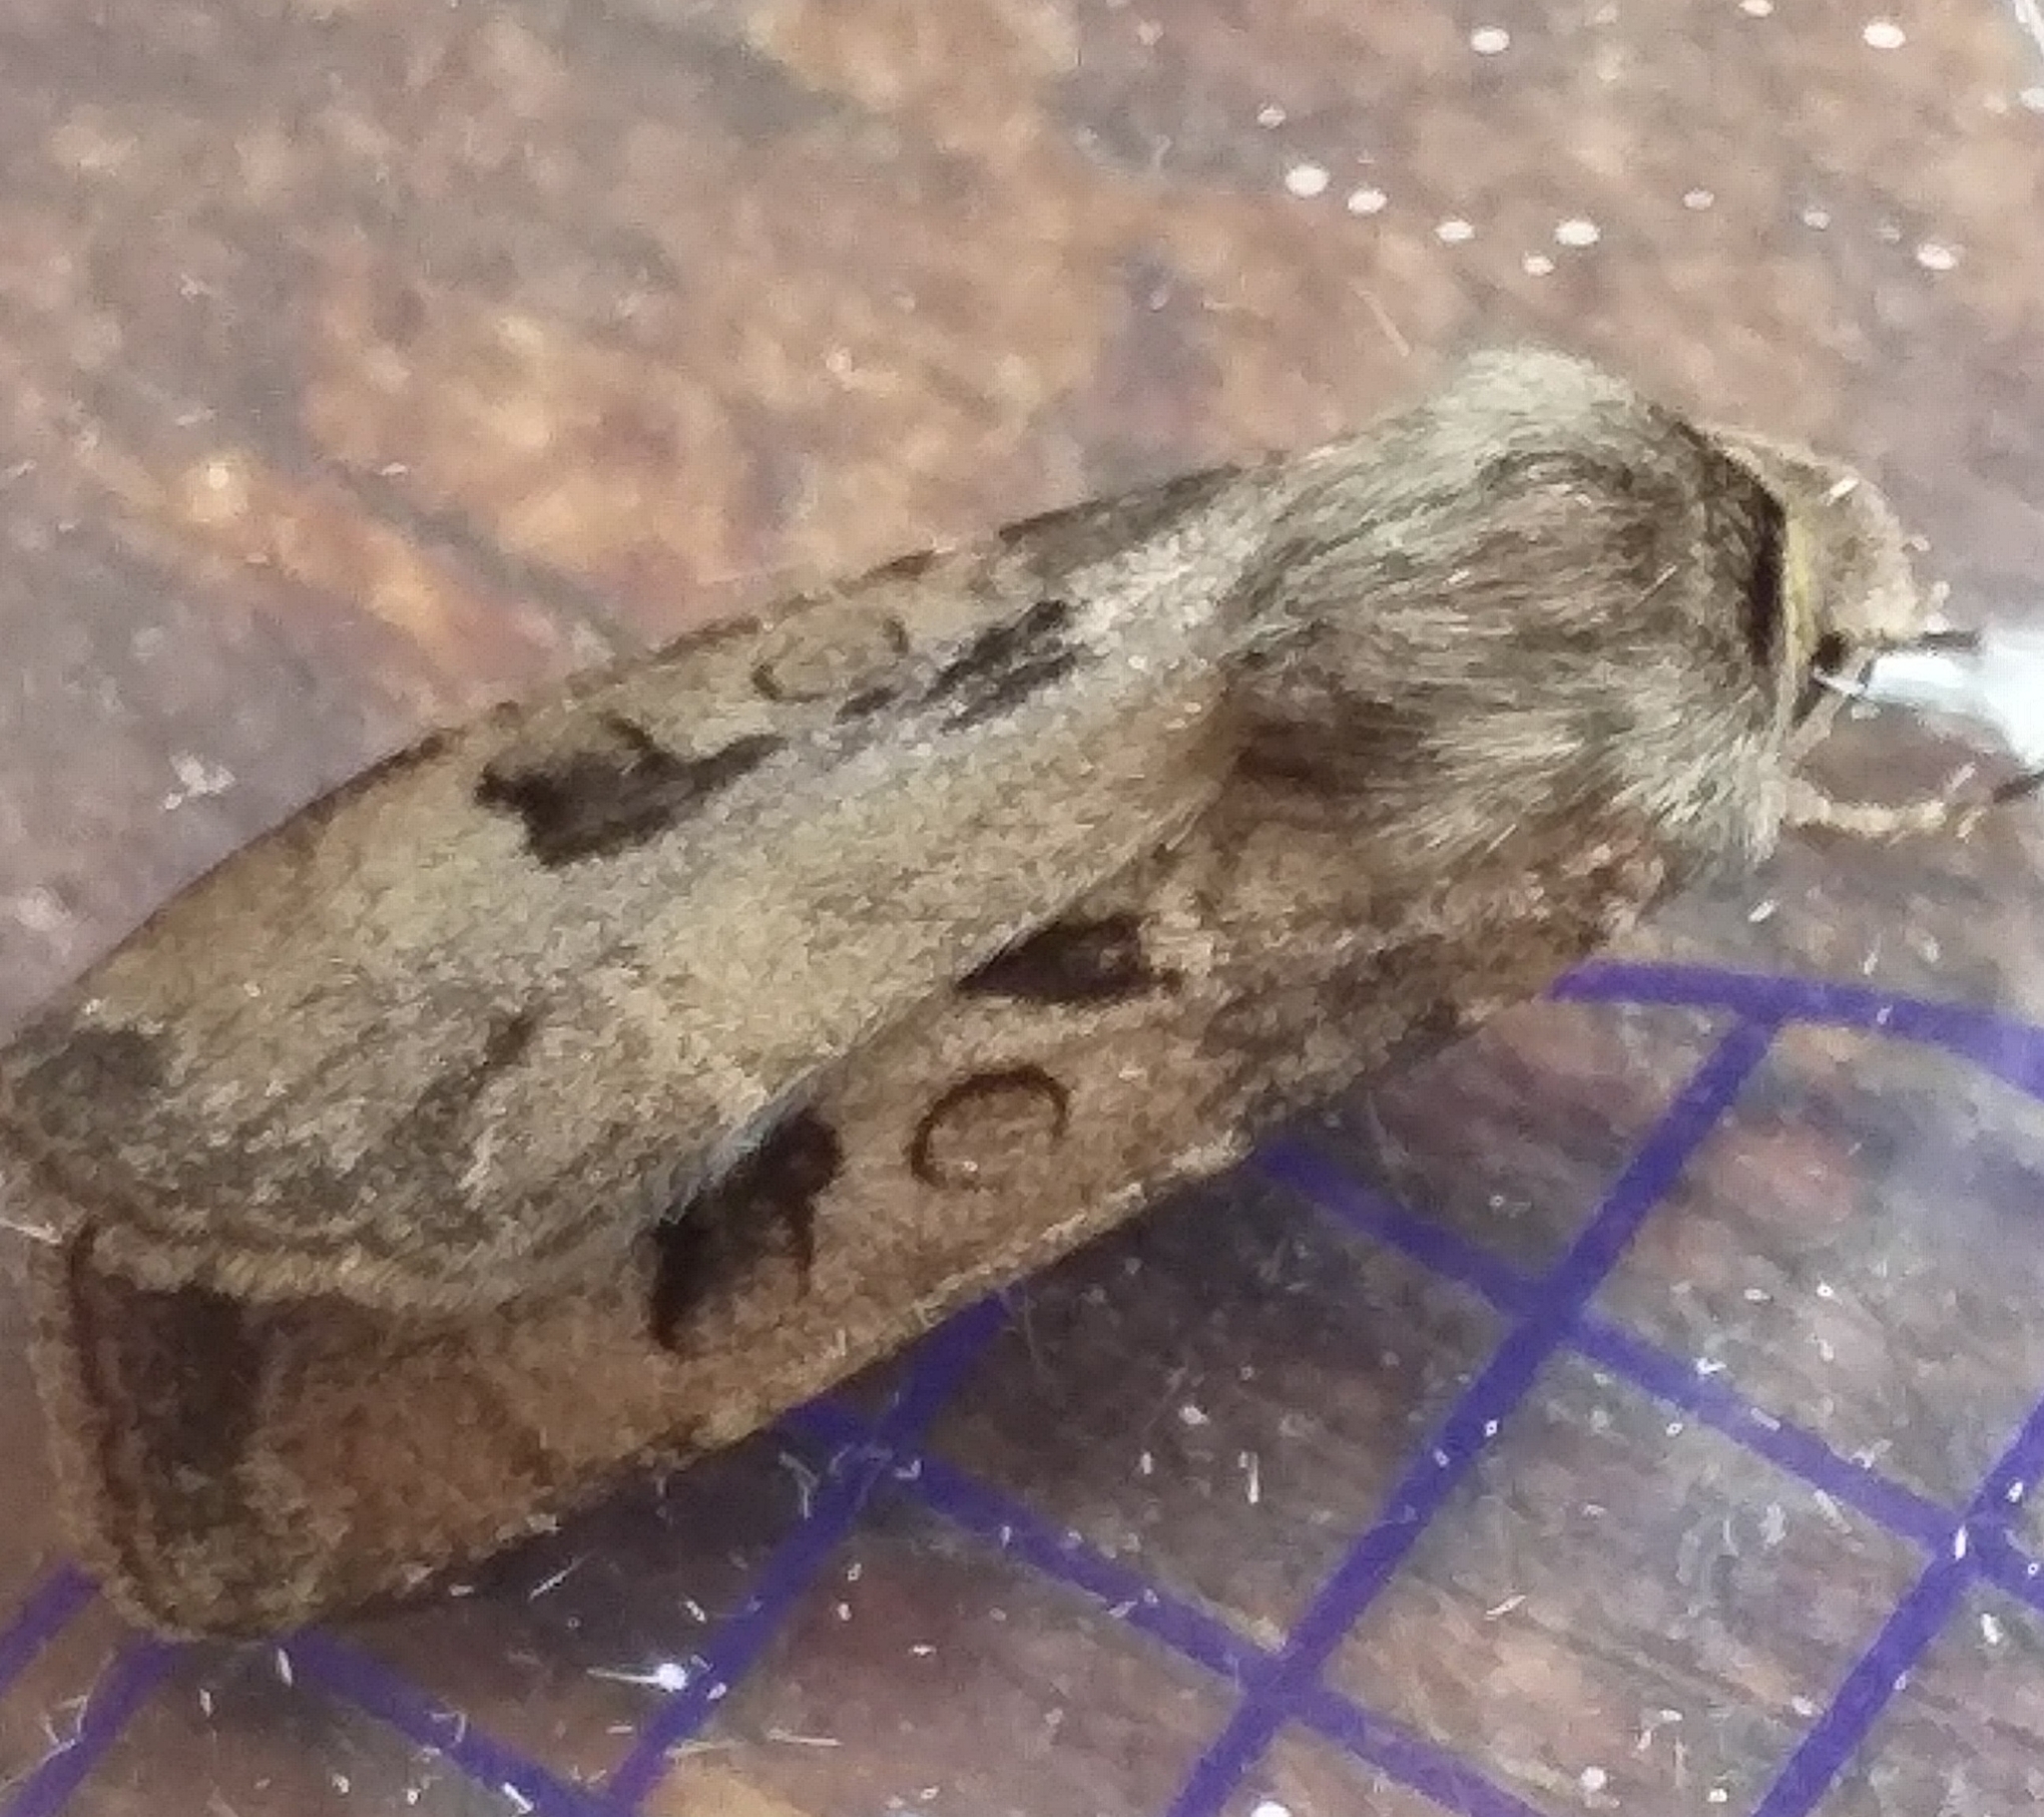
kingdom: Animalia
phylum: Arthropoda
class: Insecta
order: Lepidoptera
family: Noctuidae
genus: Agrotis
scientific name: Agrotis exclamationis
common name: Heart and dart
